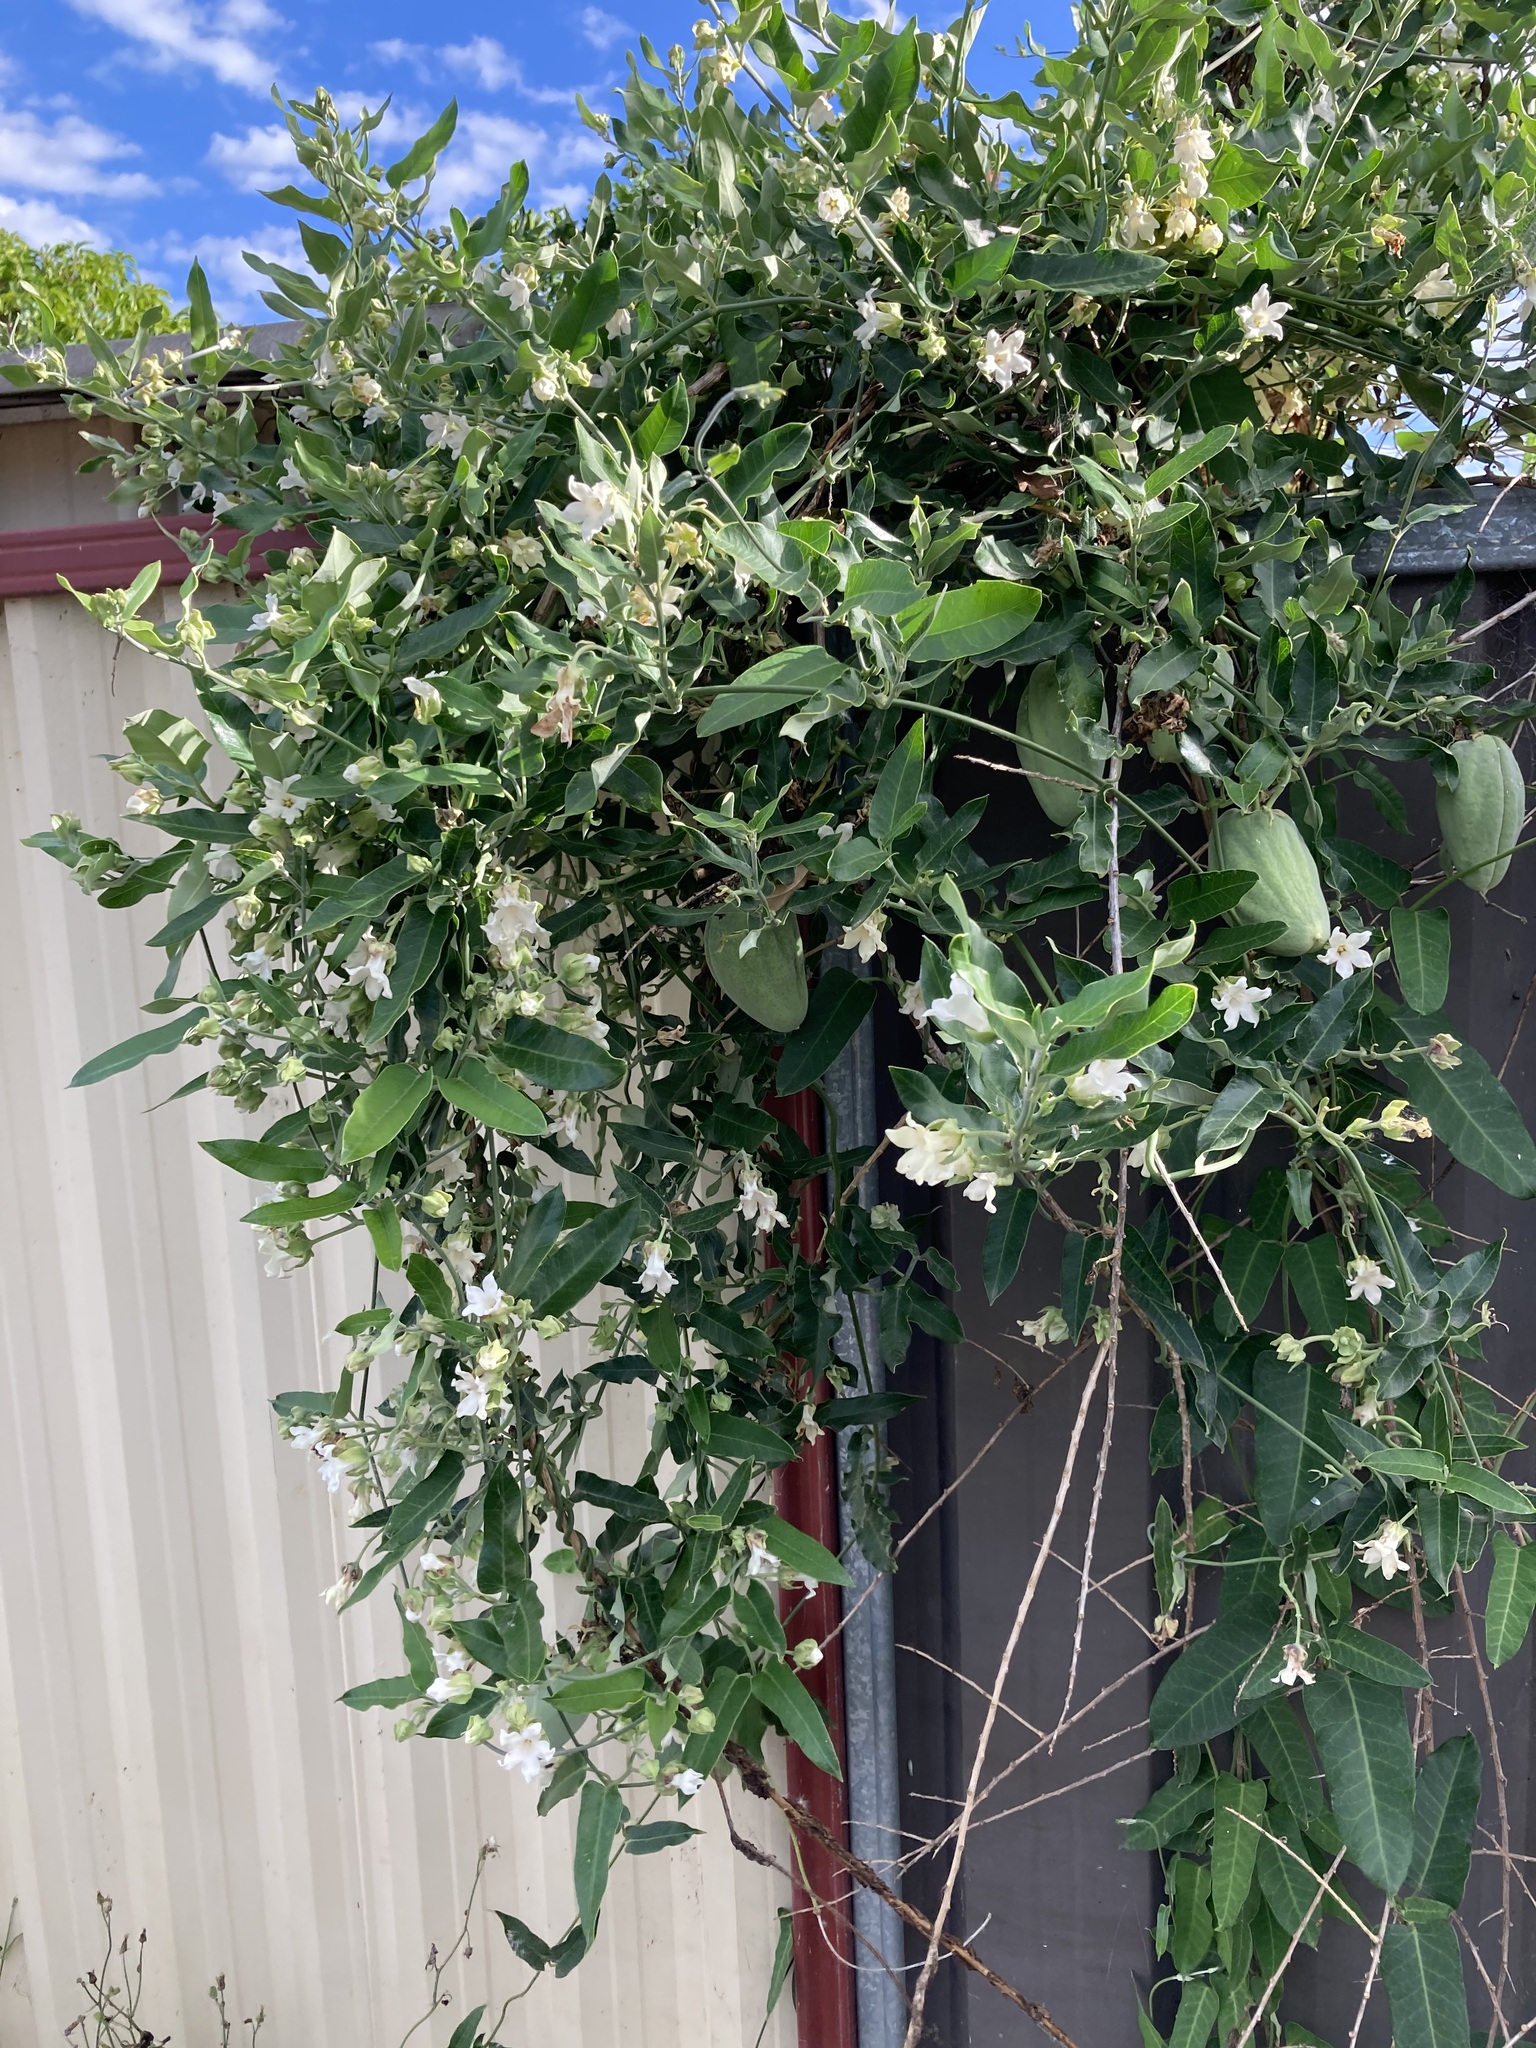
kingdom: Plantae
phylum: Tracheophyta
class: Magnoliopsida
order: Gentianales
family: Apocynaceae
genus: Araujia
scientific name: Araujia sericifera
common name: White bladderflower
